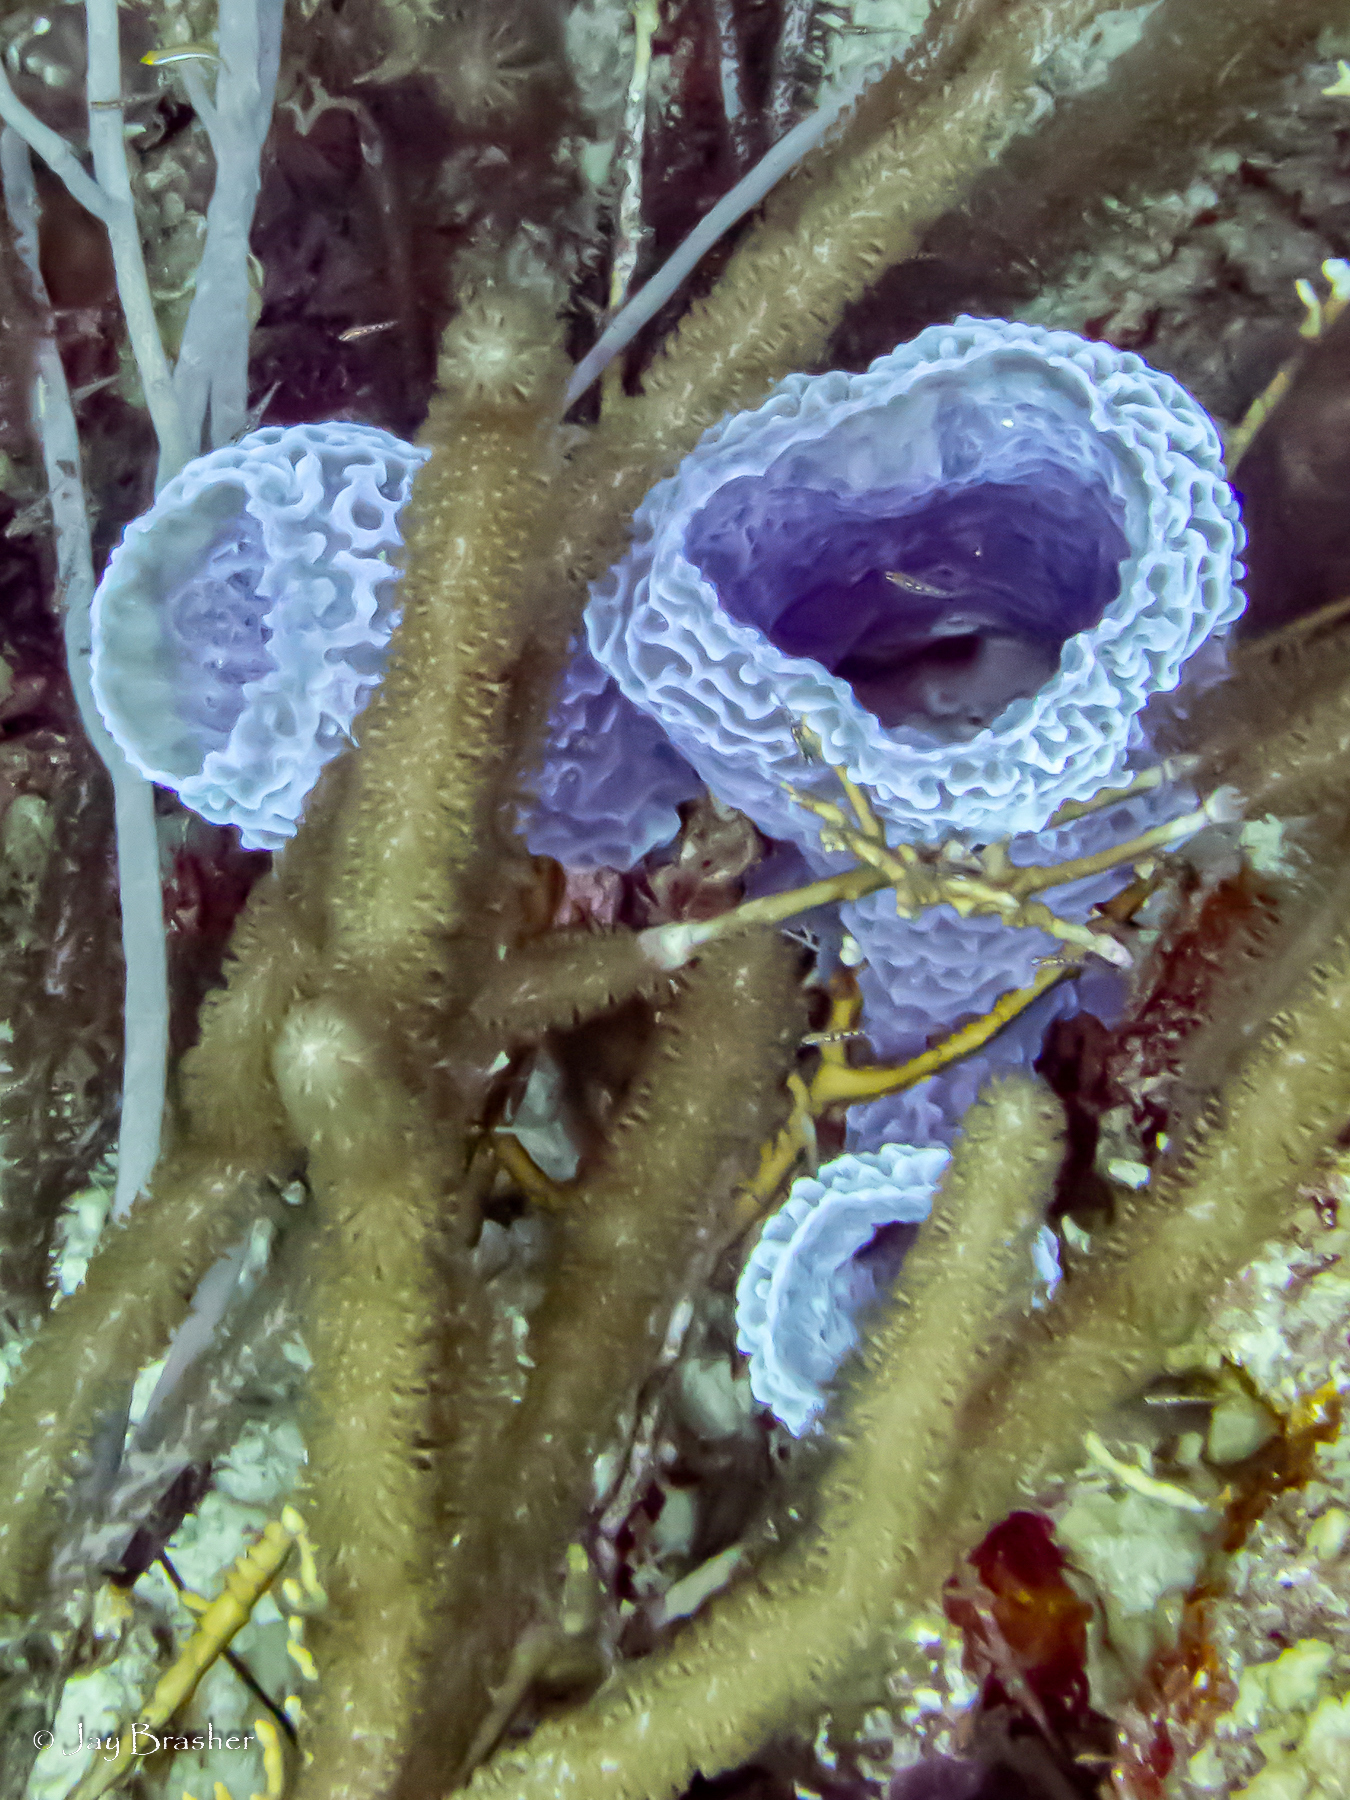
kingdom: Animalia
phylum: Porifera
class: Demospongiae
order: Haplosclerida
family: Callyspongiidae
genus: Callyspongia
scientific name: Callyspongia plicifera
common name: Azure vase sponge
